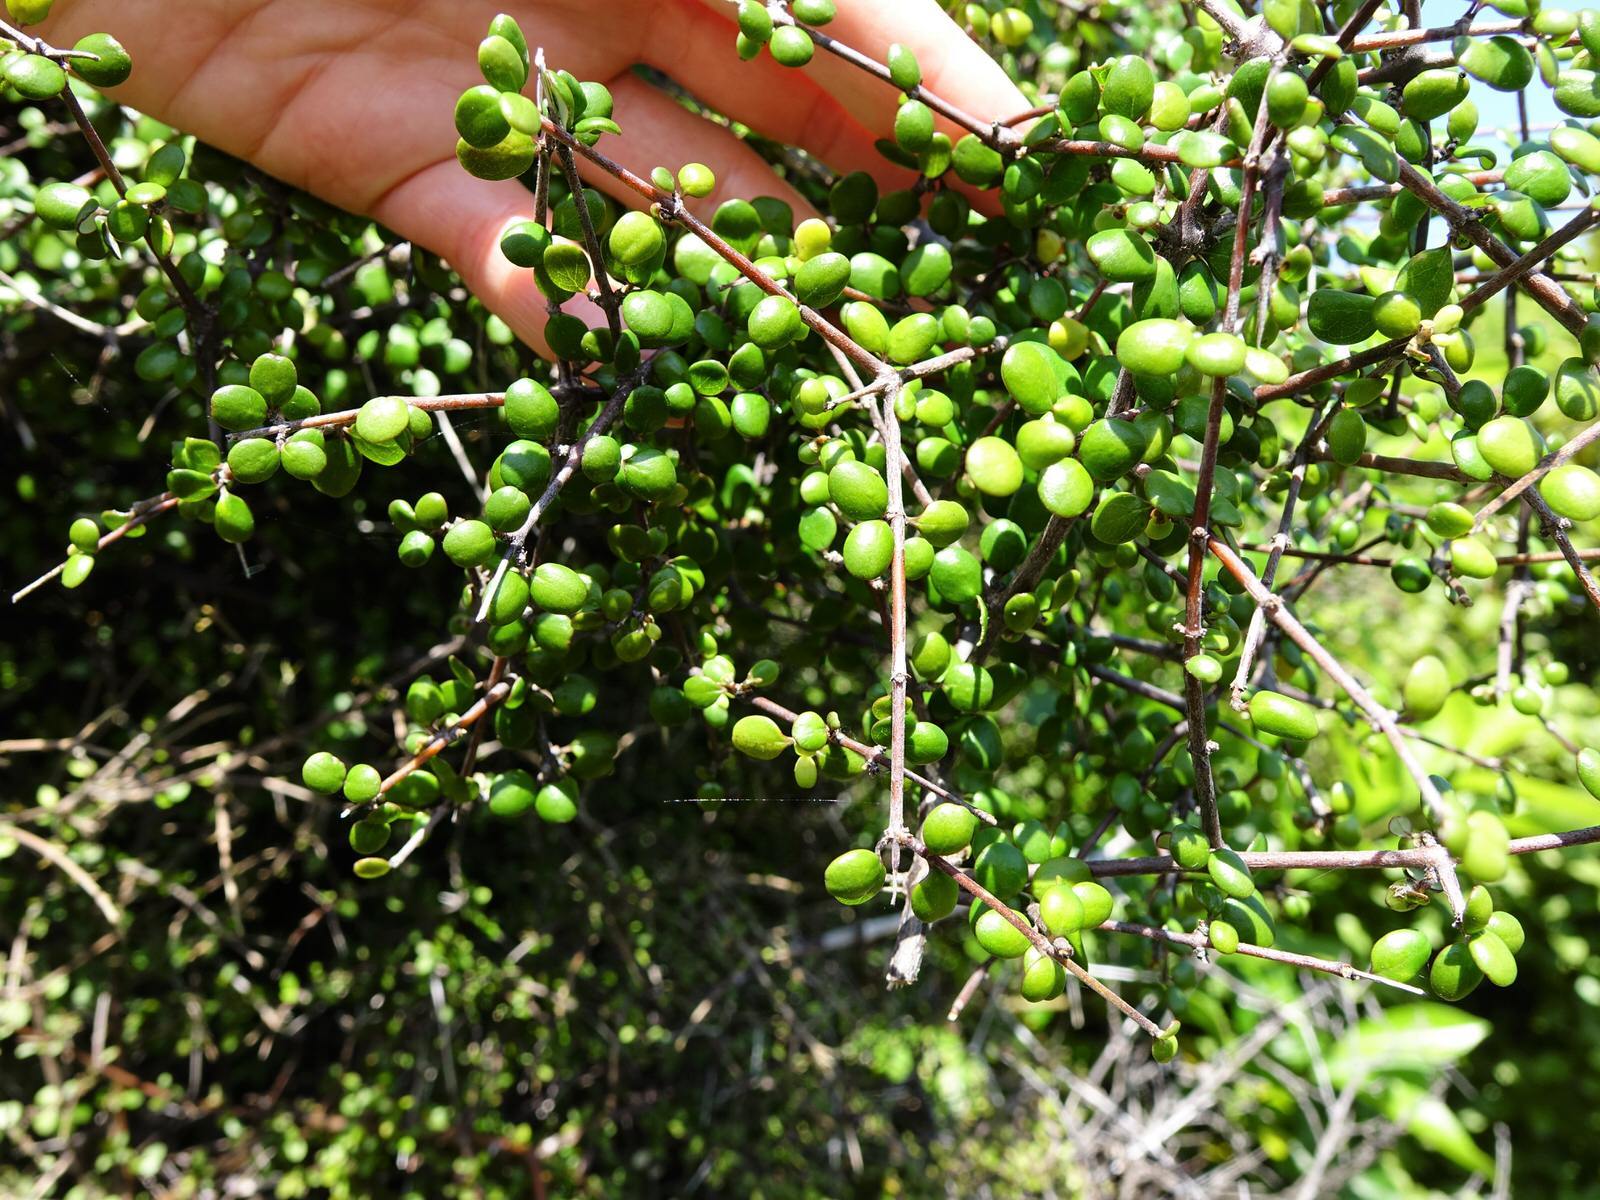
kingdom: Plantae
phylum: Tracheophyta
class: Magnoliopsida
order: Gentianales
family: Rubiaceae
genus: Coprosma
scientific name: Coprosma crassifolia
